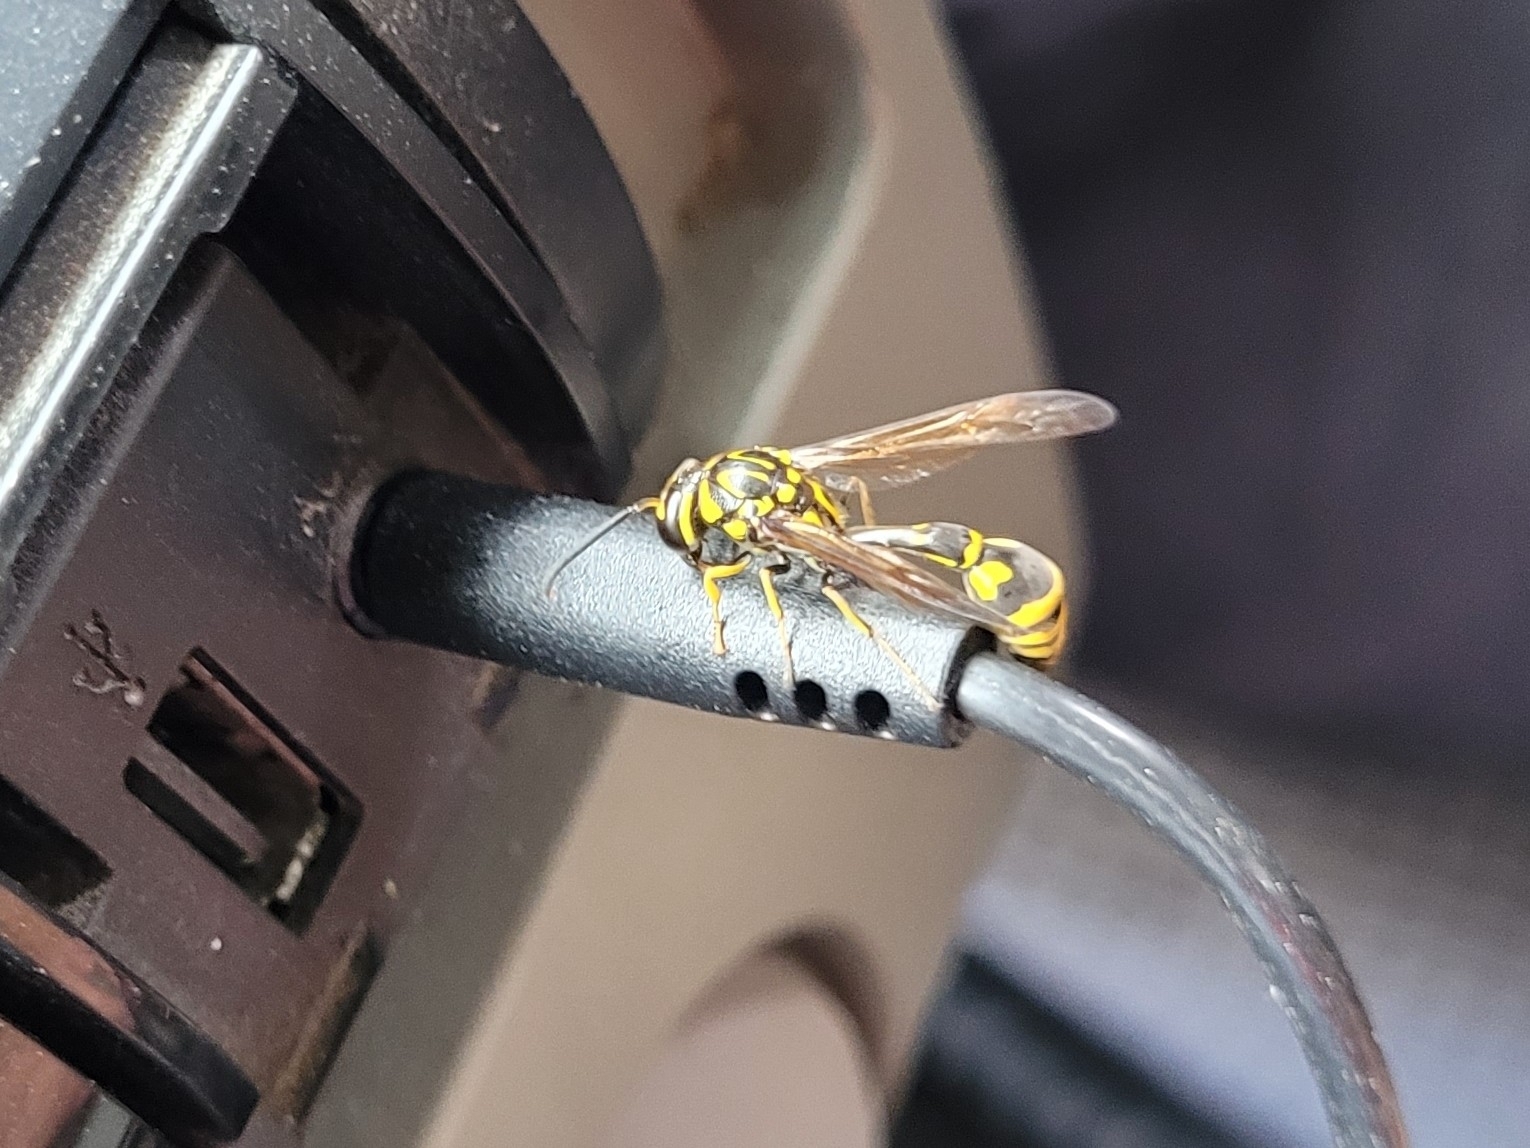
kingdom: Animalia
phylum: Arthropoda
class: Insecta
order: Hymenoptera
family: Eumenidae
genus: Pseumenes
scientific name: Pseumenes depressus
